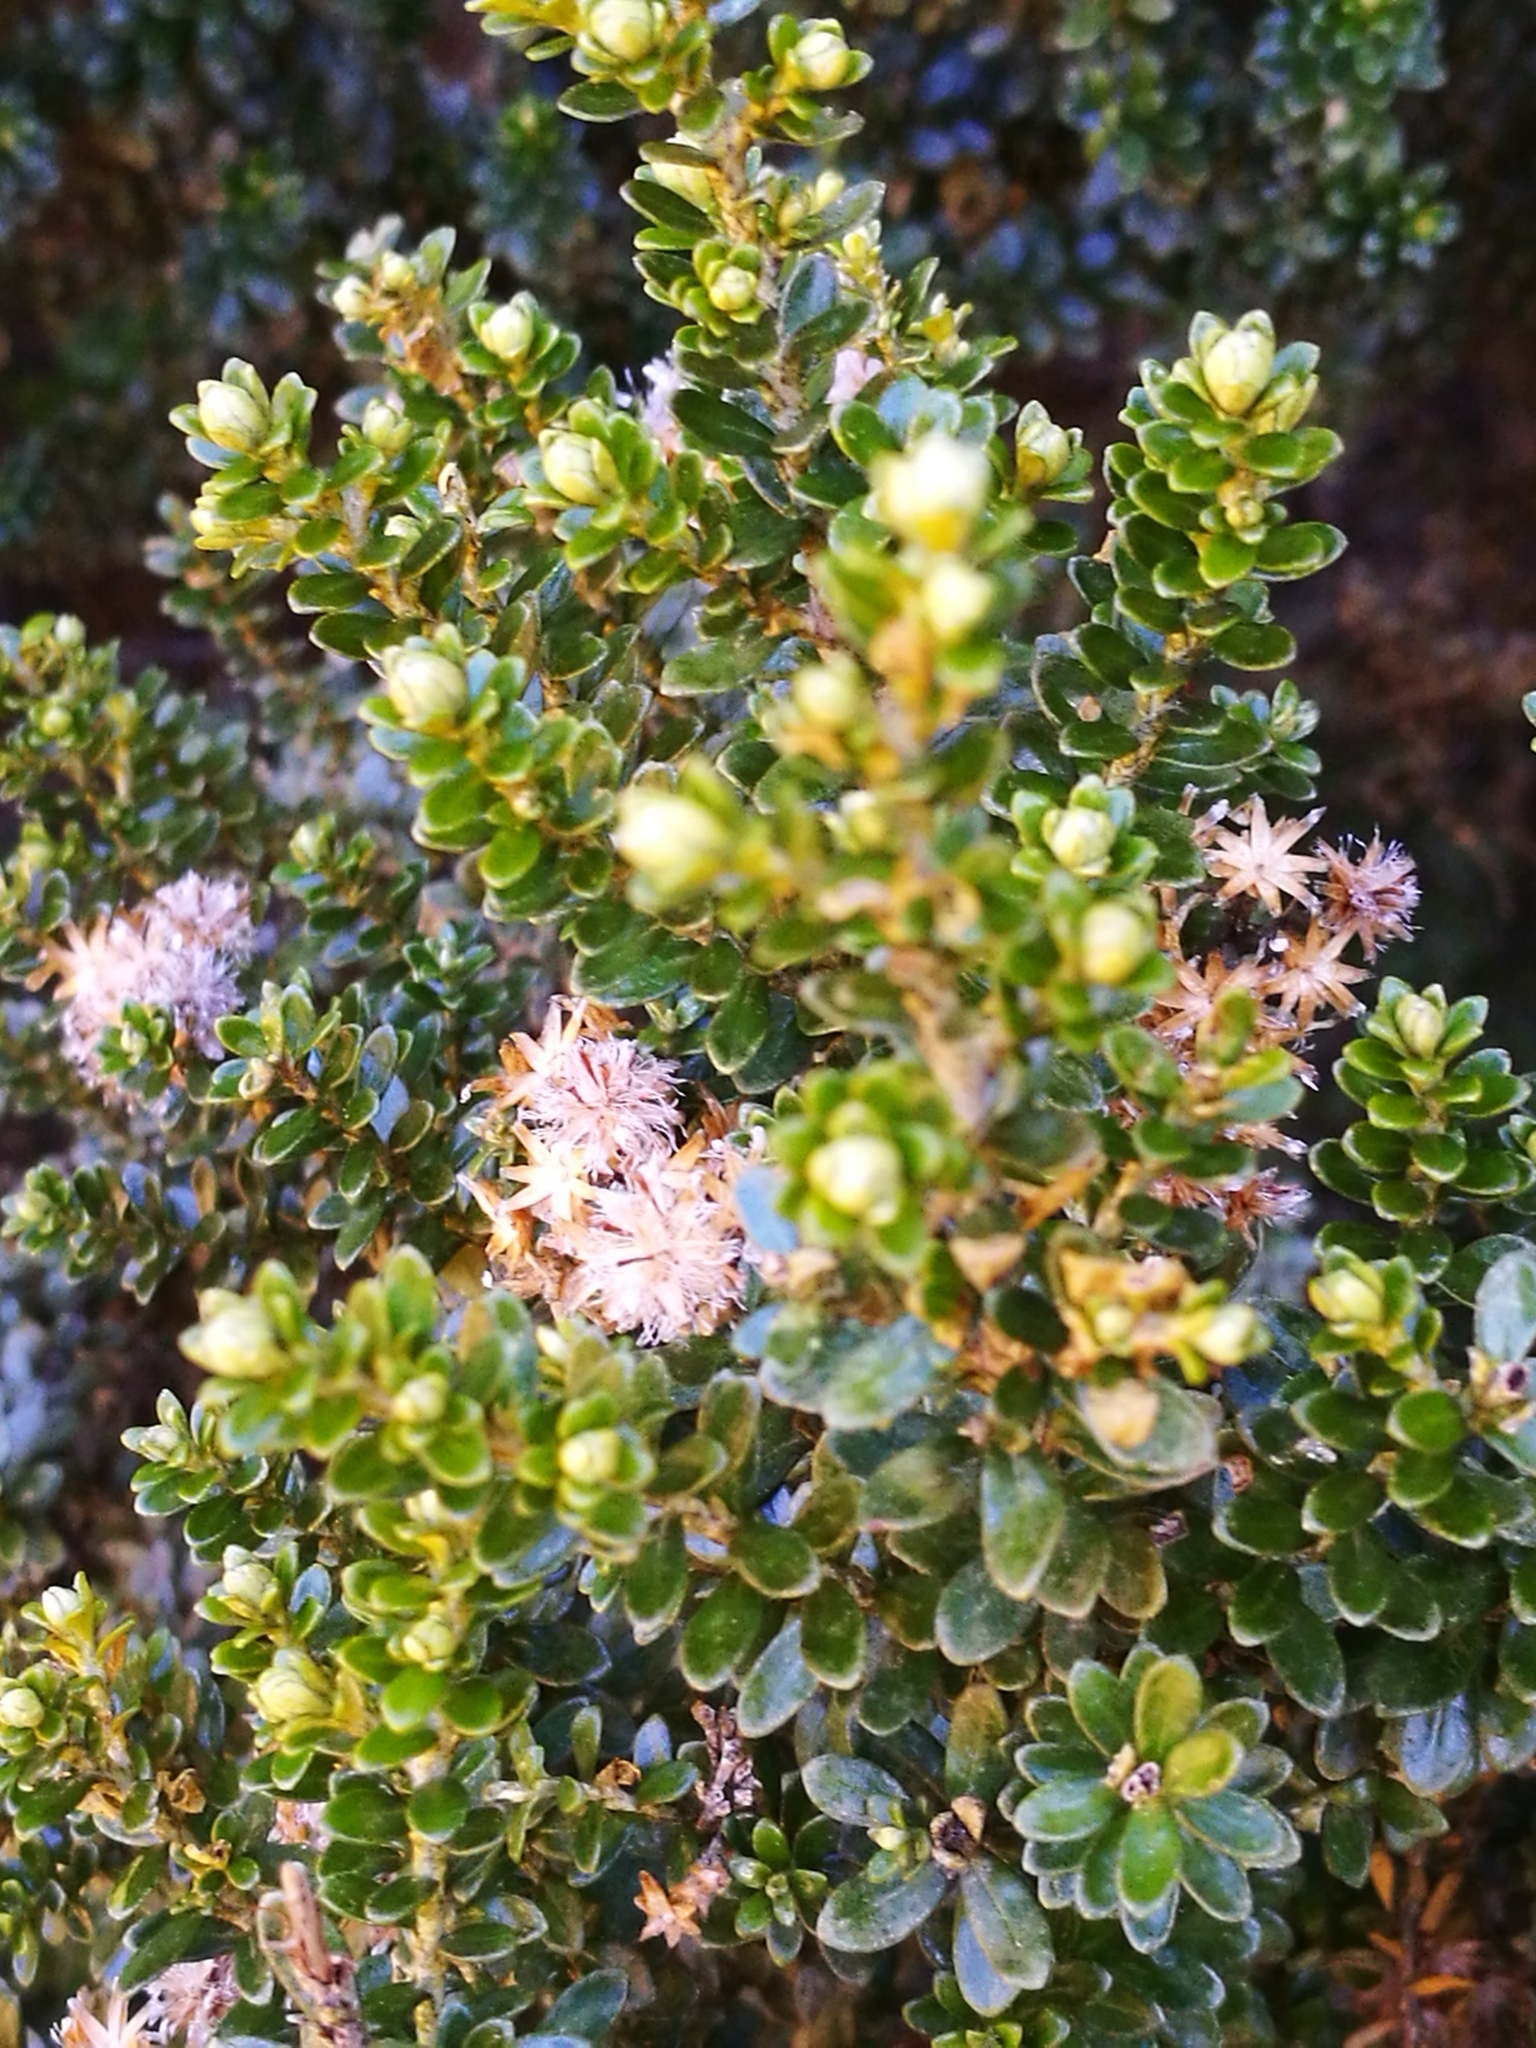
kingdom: Plantae
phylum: Tracheophyta
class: Magnoliopsida
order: Asterales
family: Asteraceae
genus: Ozothamnus
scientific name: Ozothamnus leptophyllus
